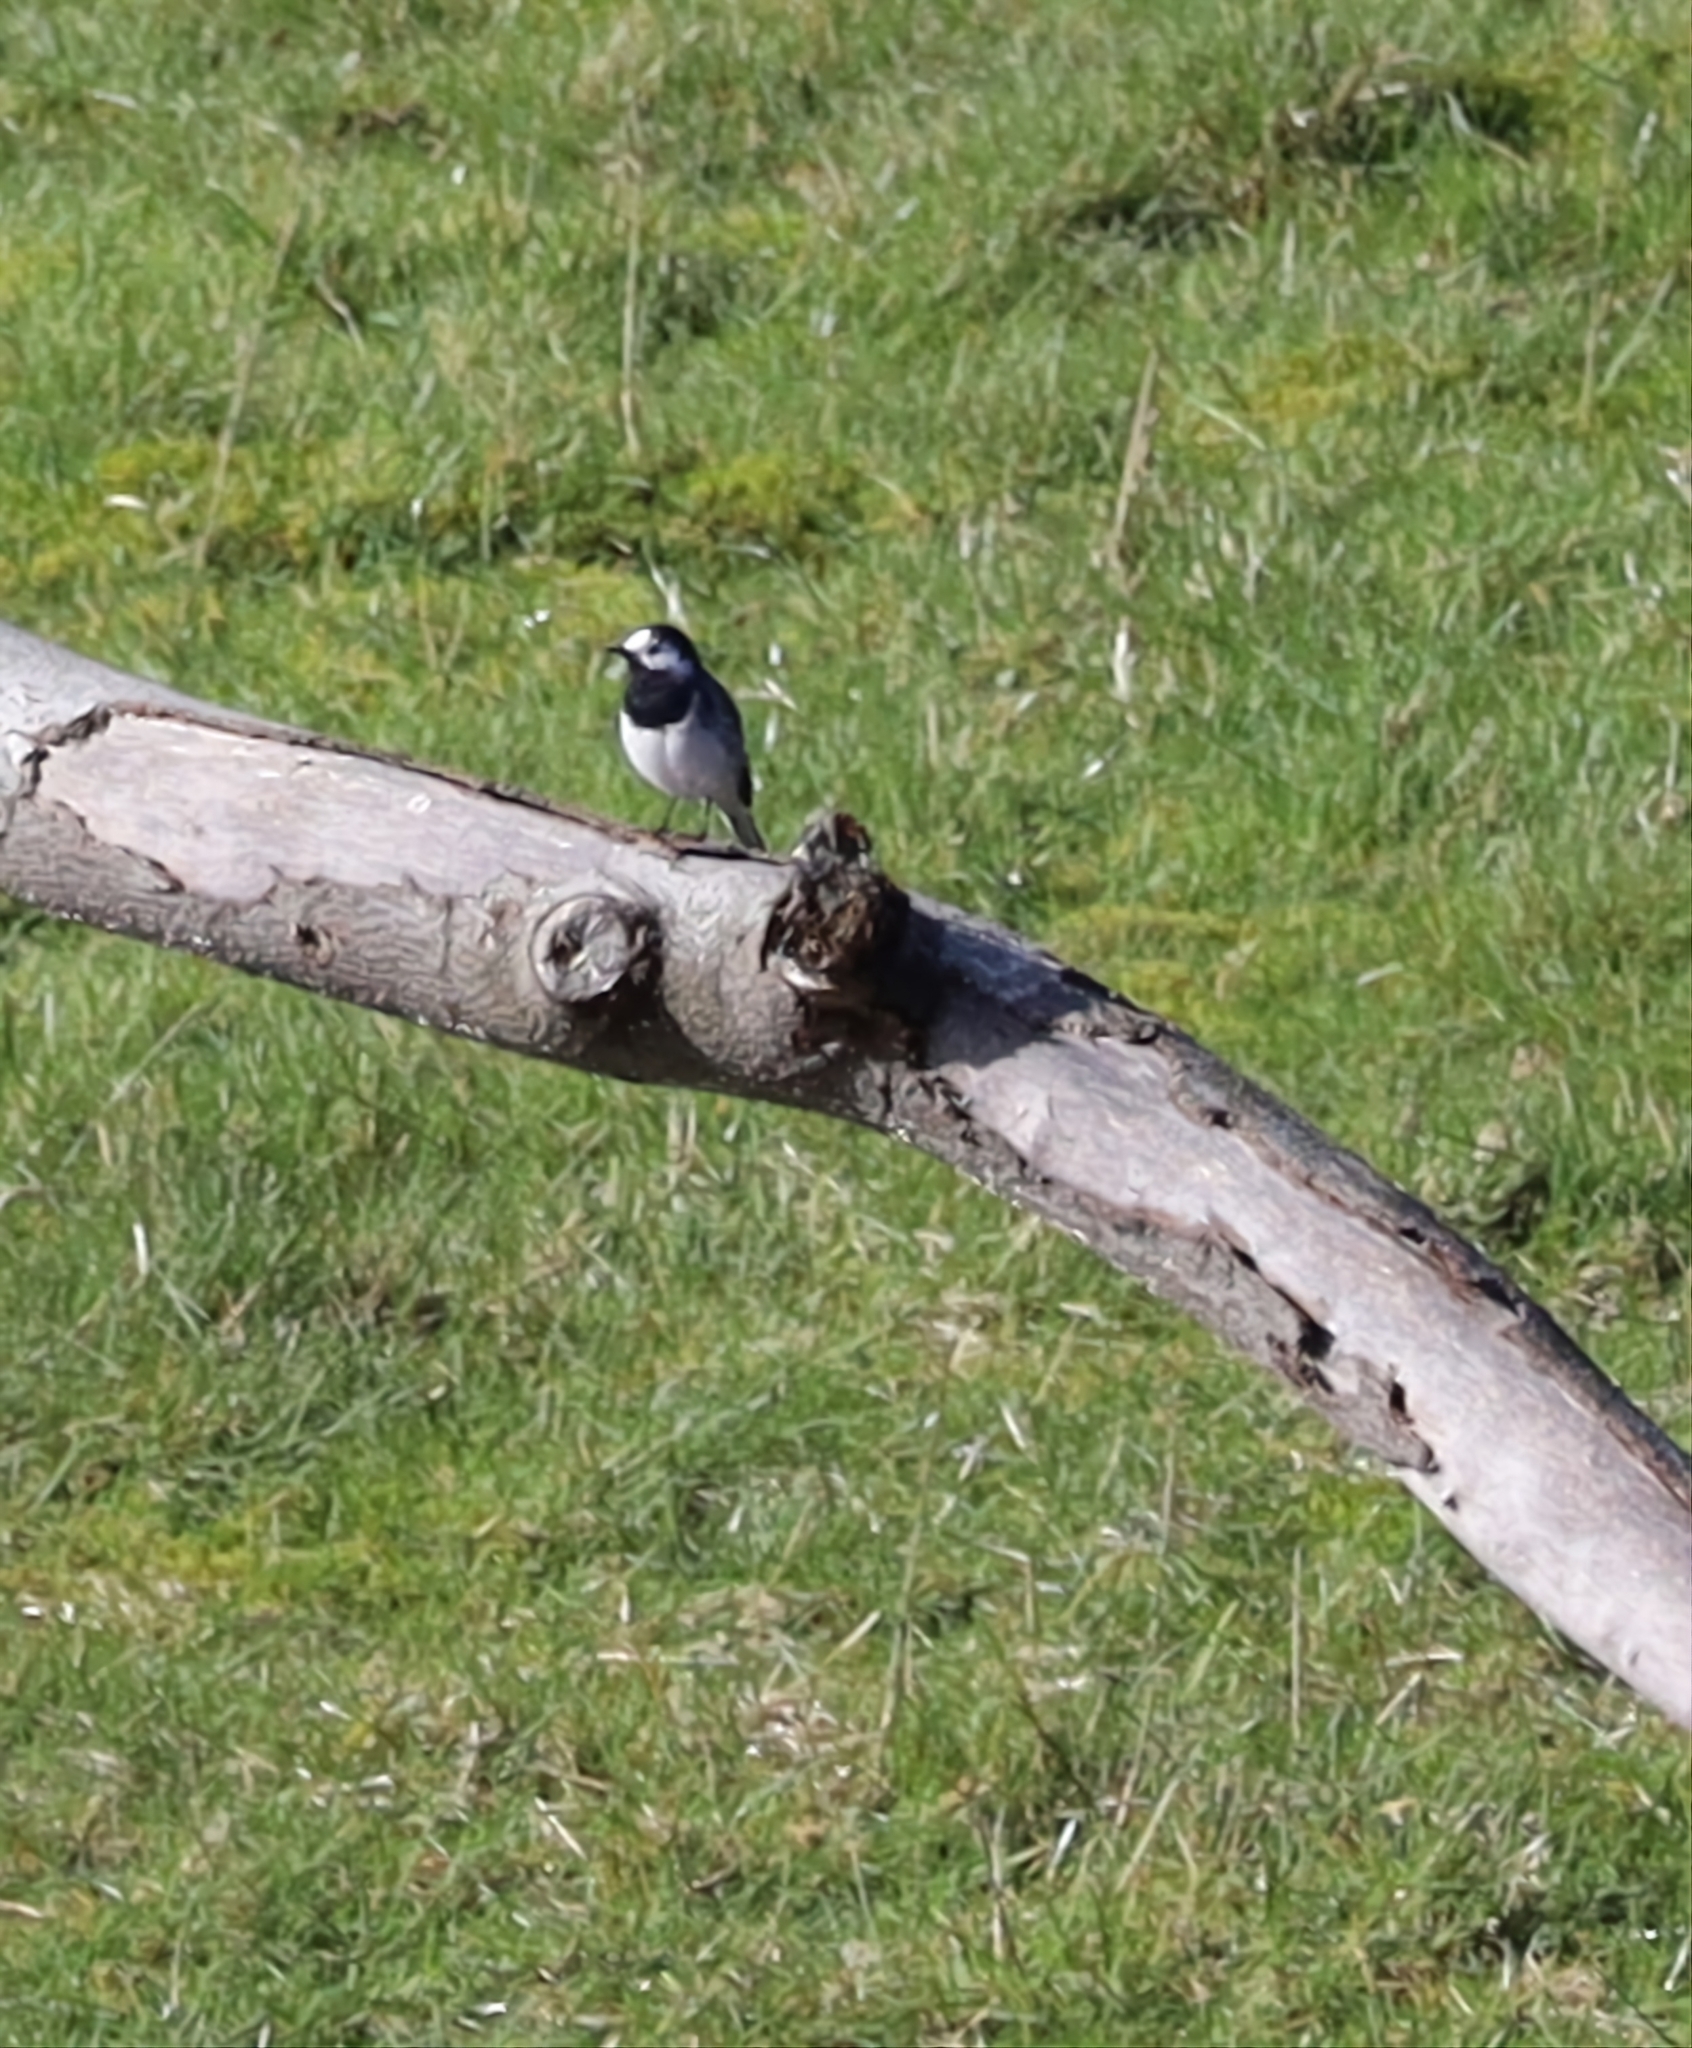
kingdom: Animalia
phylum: Chordata
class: Aves
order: Passeriformes
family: Motacillidae
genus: Motacilla
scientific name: Motacilla alba
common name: White wagtail
